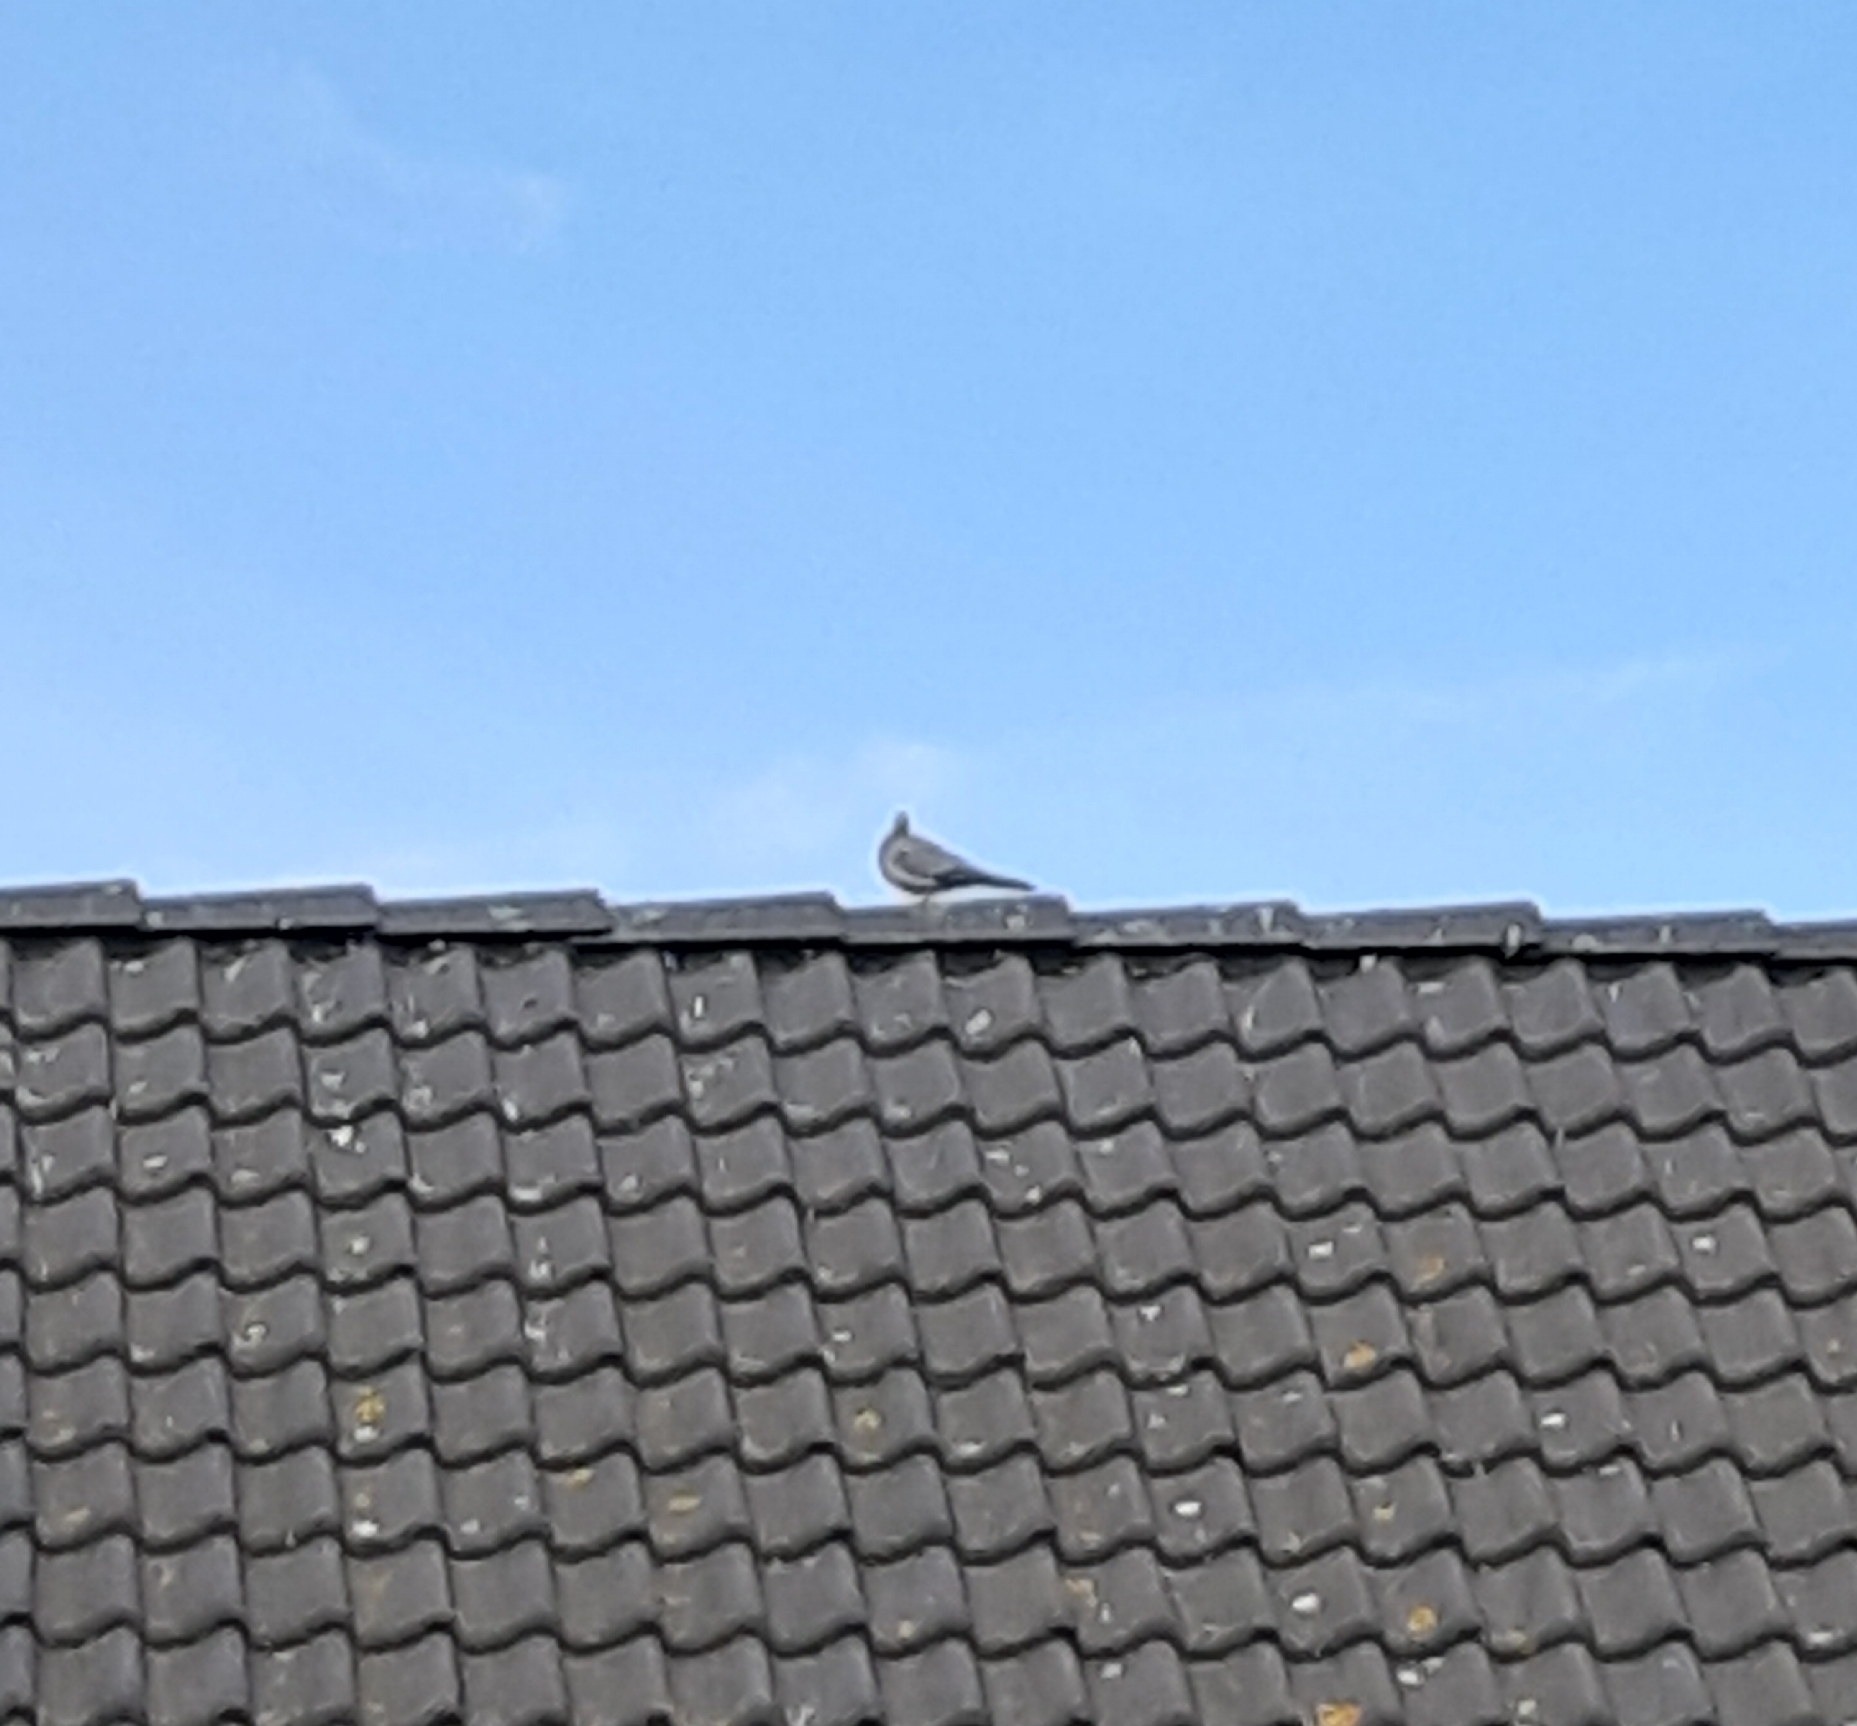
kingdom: Animalia
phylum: Chordata
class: Aves
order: Columbiformes
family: Columbidae
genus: Streptopelia
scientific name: Streptopelia decaocto
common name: Eurasian collared dove
